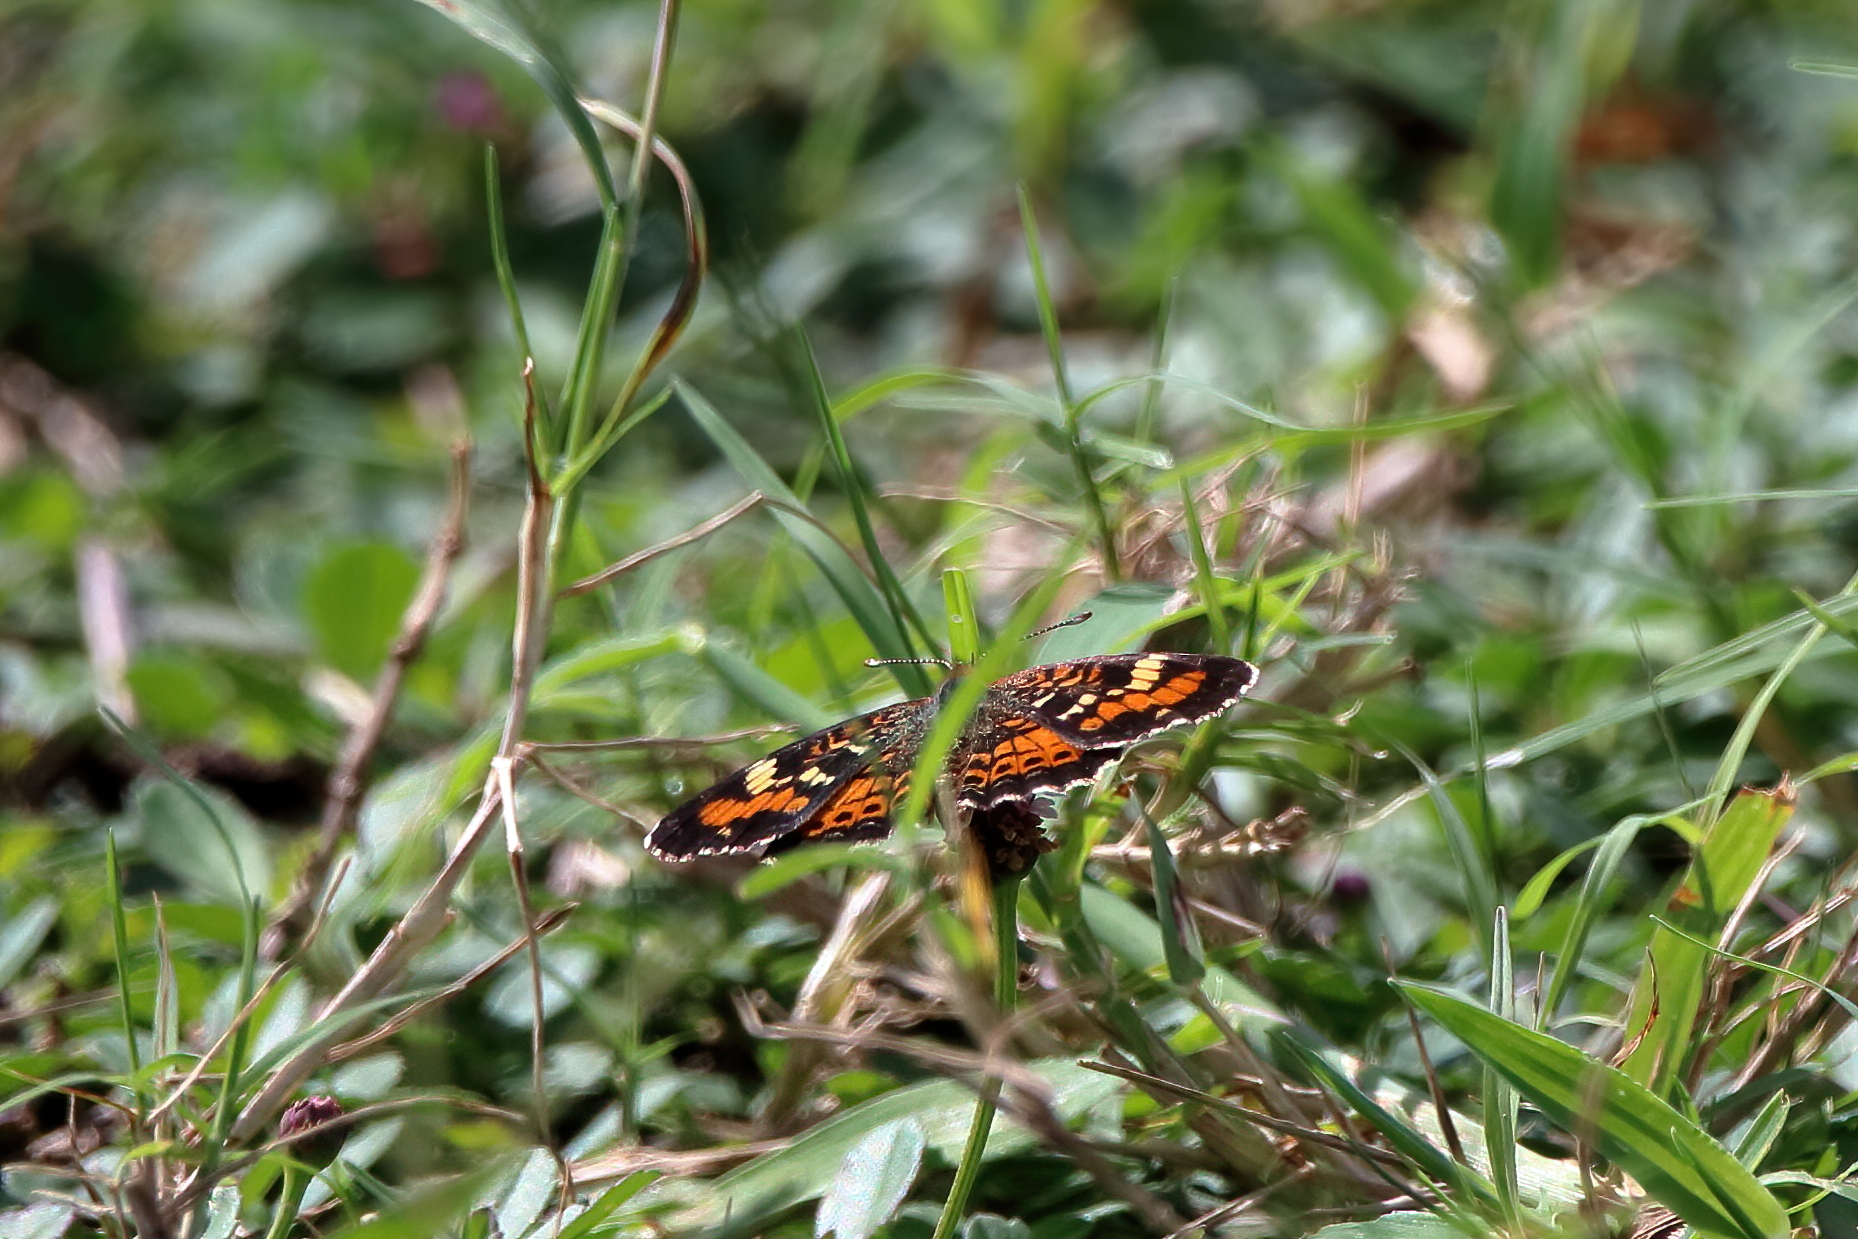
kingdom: Animalia
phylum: Arthropoda
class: Insecta
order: Lepidoptera
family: Nymphalidae
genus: Phyciodes
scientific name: Phyciodes phaon
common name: Phaon crescent
